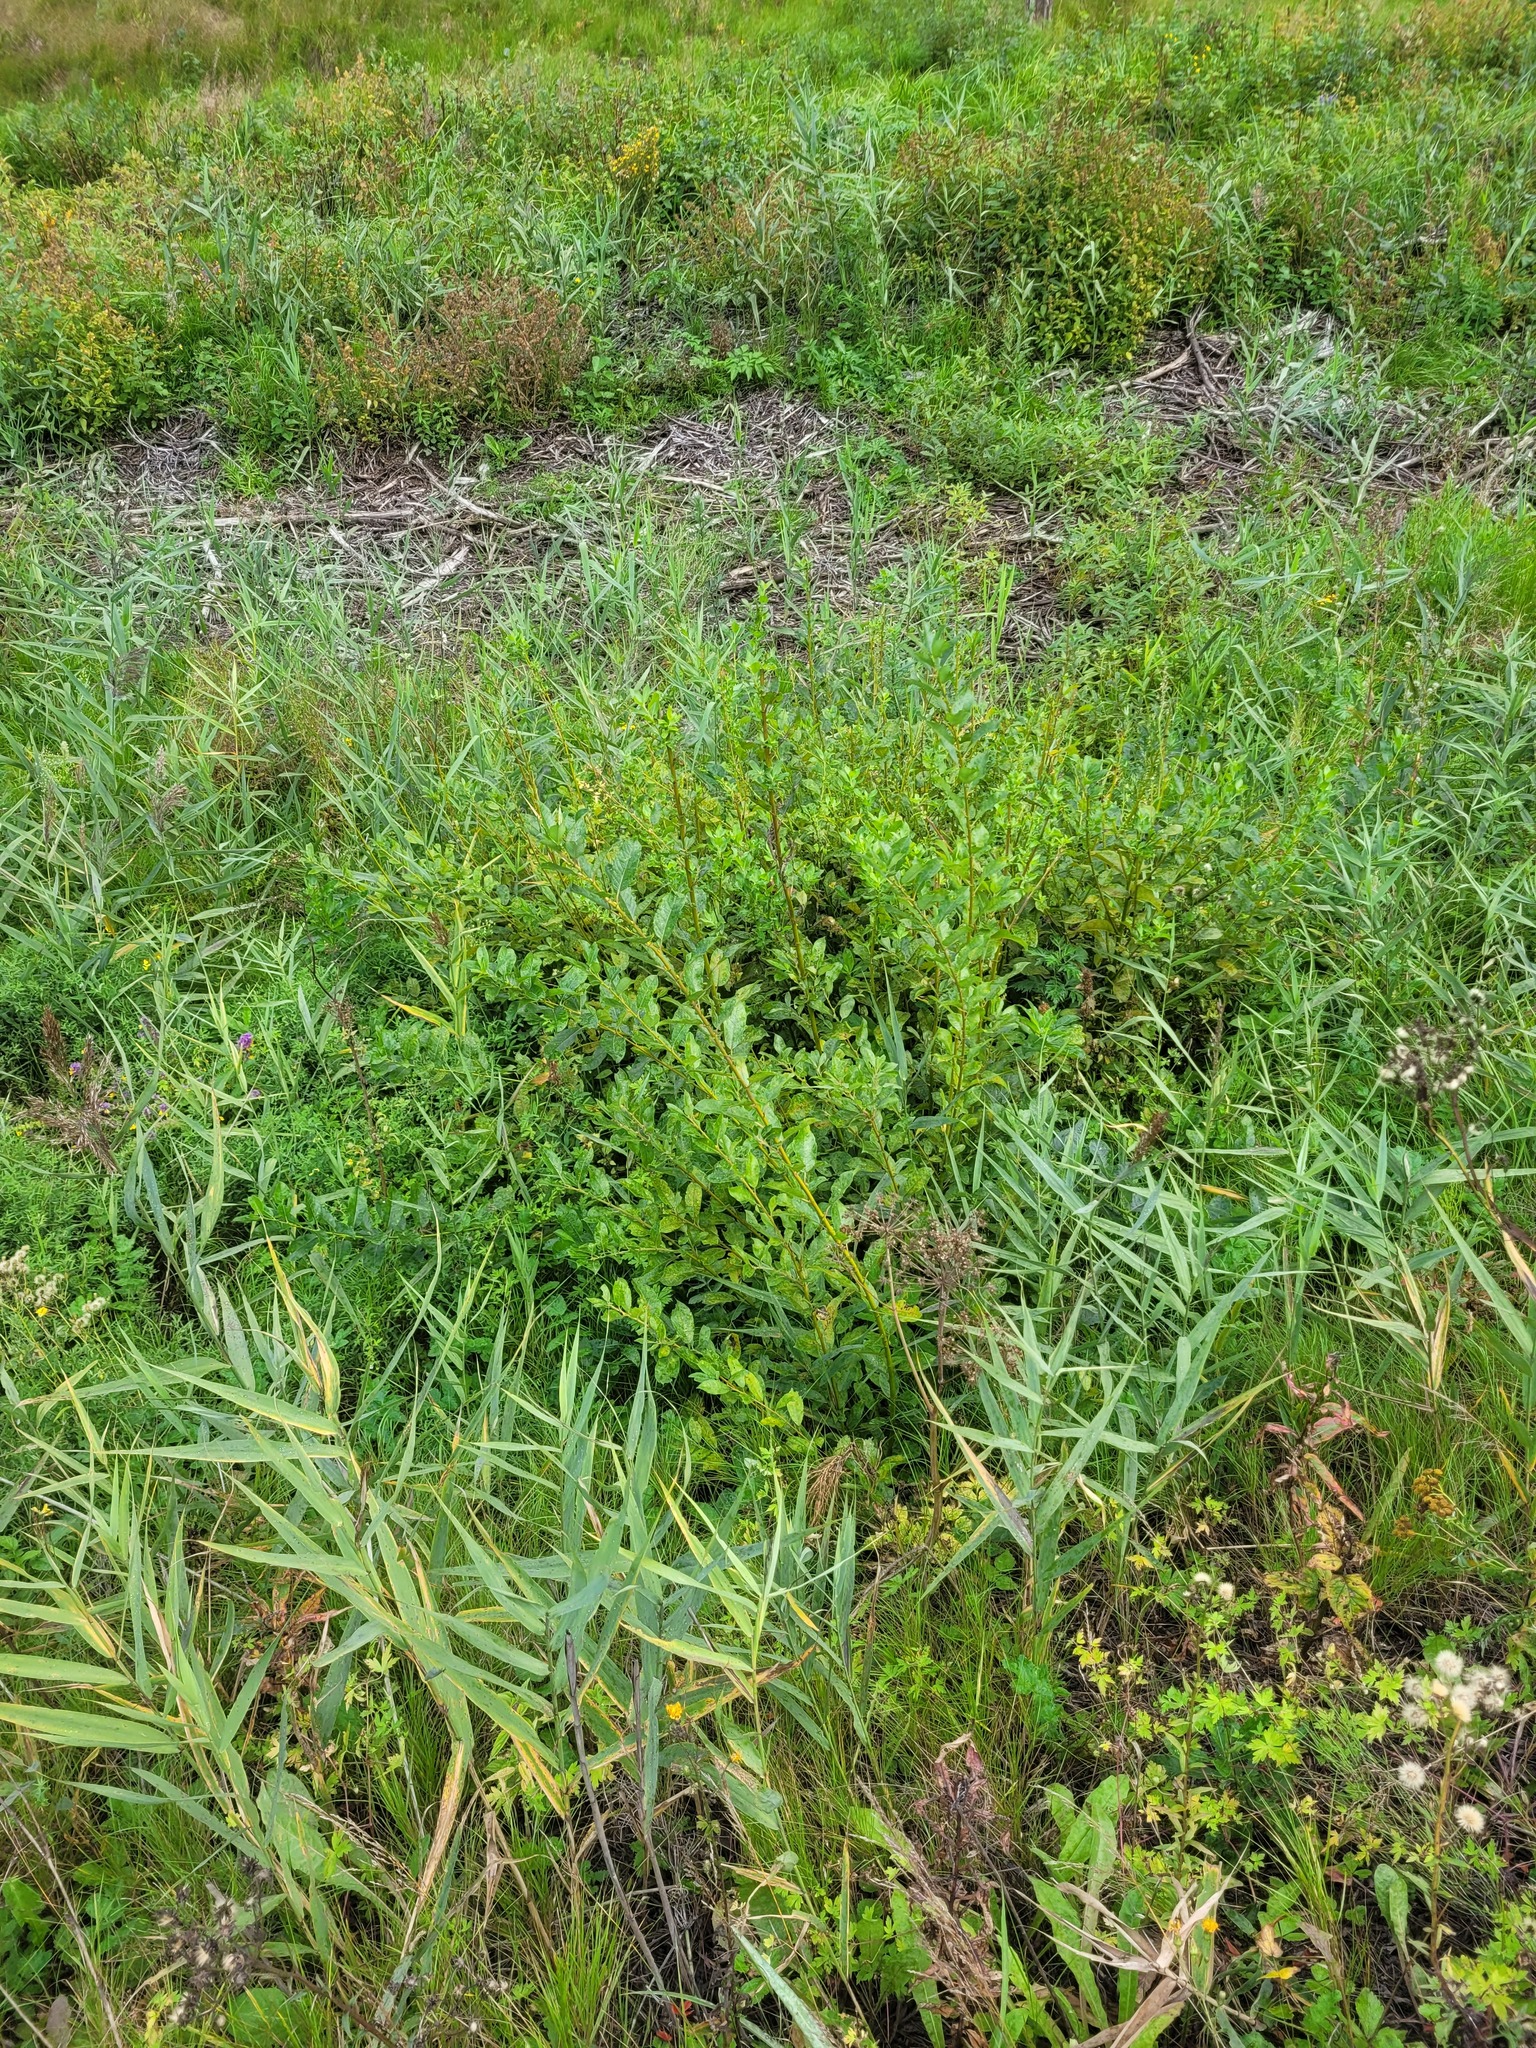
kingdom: Plantae
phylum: Tracheophyta
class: Magnoliopsida
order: Malpighiales
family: Salicaceae
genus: Salix
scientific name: Salix myrsinifolia
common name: Dark-leaved willow
